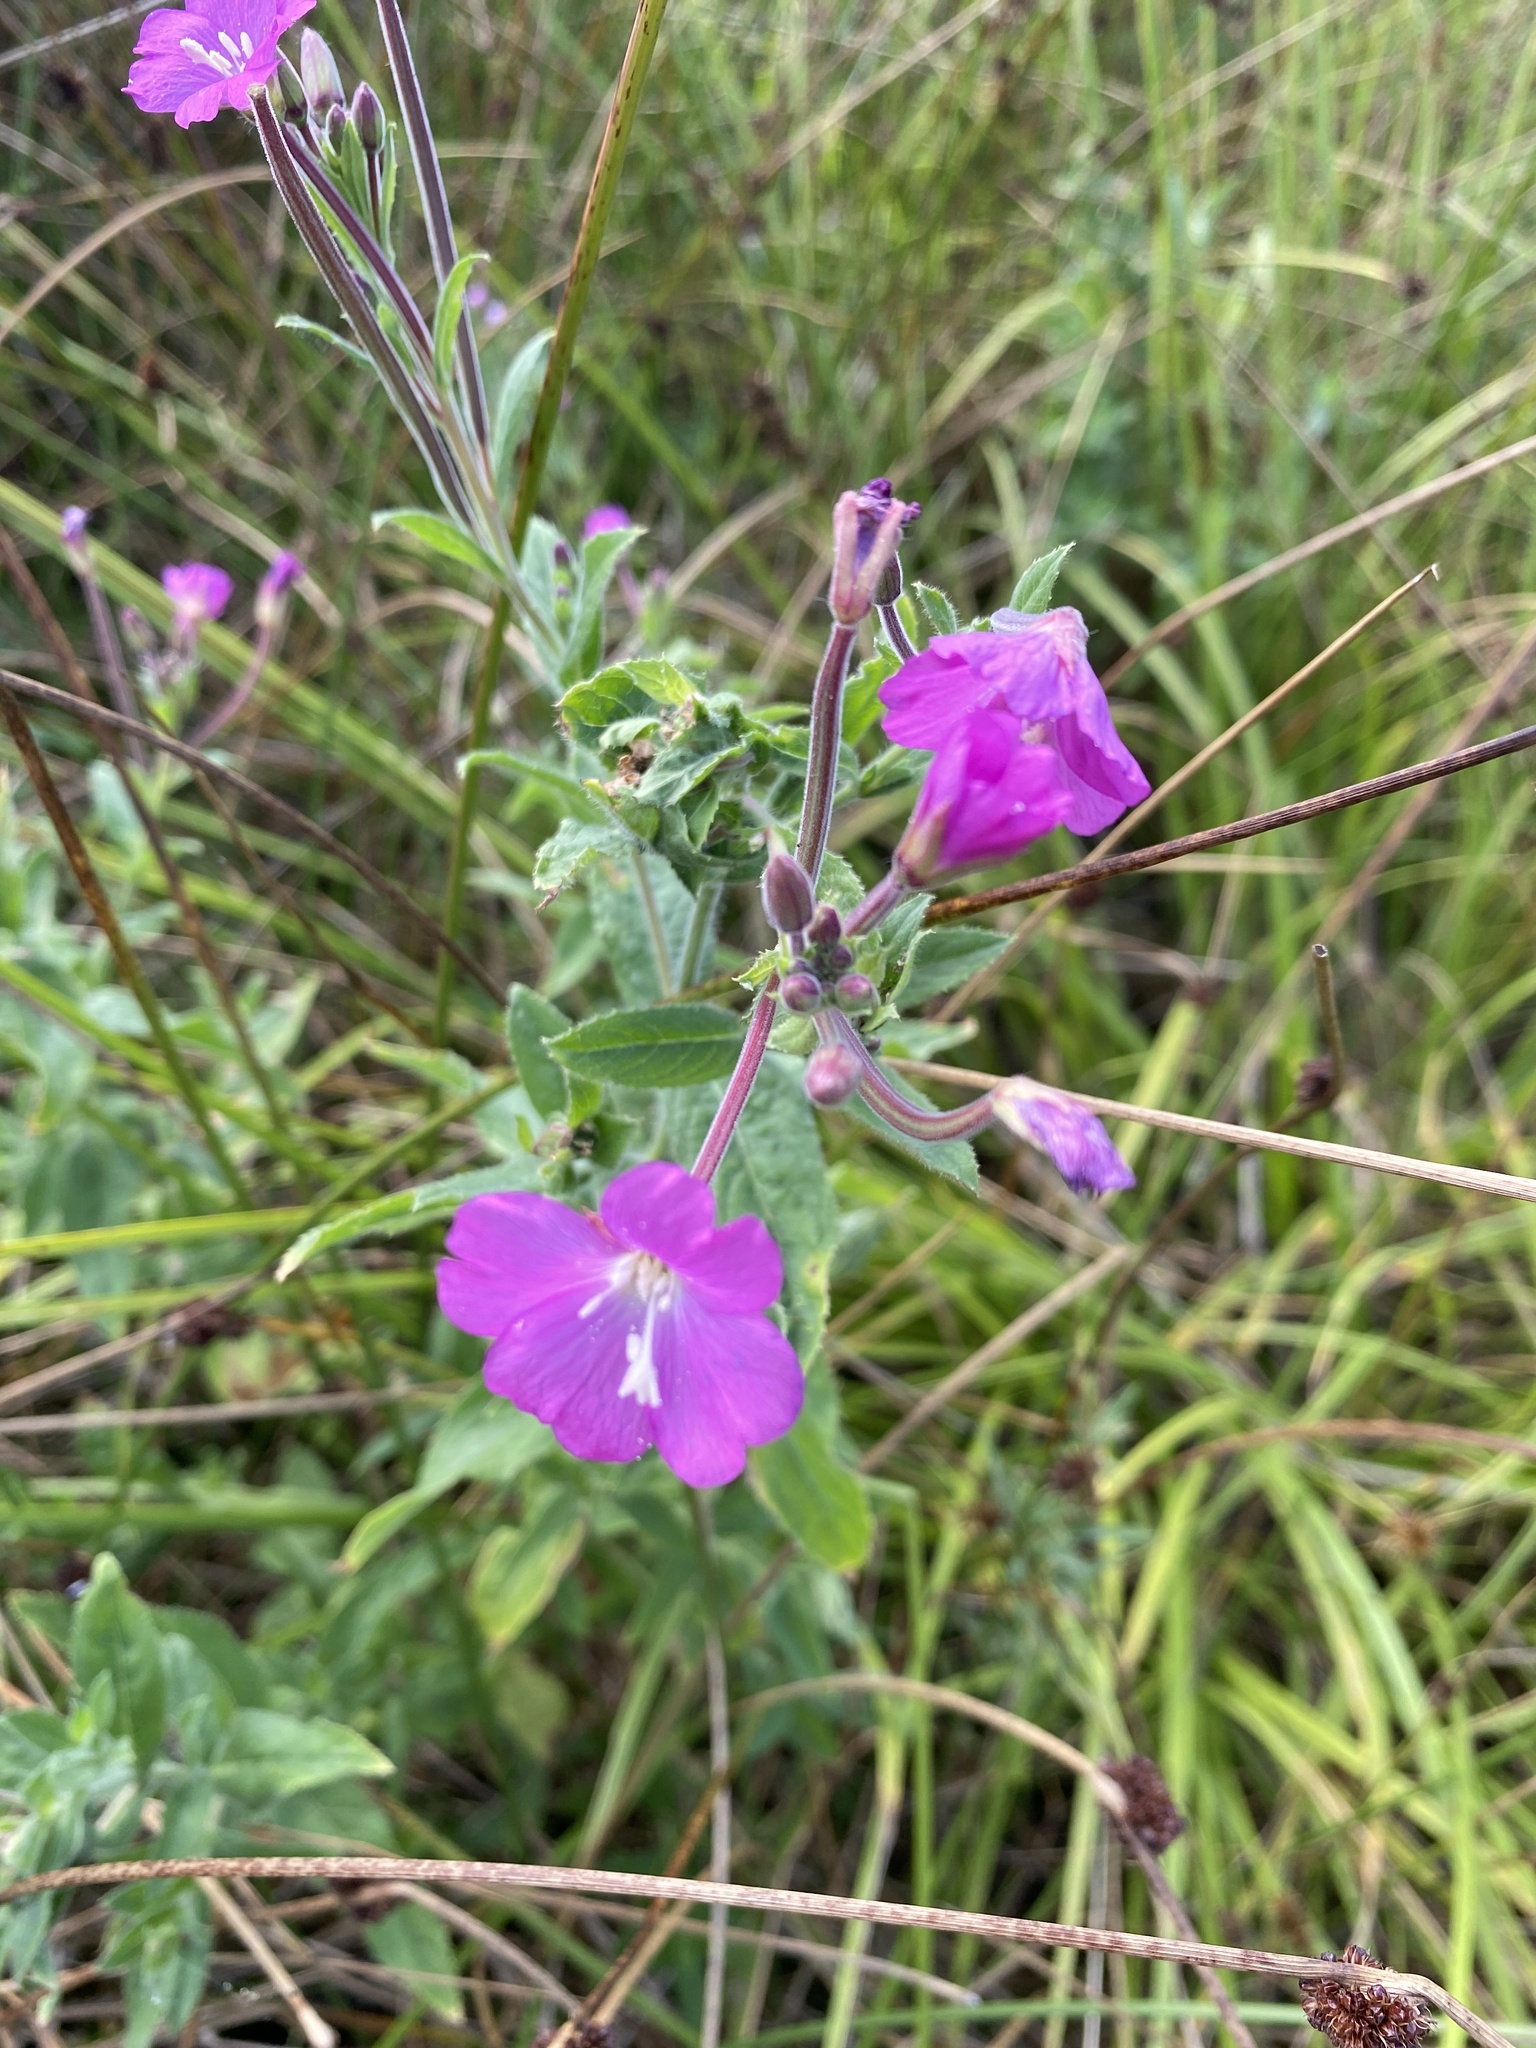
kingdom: Plantae
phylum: Tracheophyta
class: Magnoliopsida
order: Myrtales
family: Onagraceae
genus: Epilobium
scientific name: Epilobium hirsutum
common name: Great willowherb
